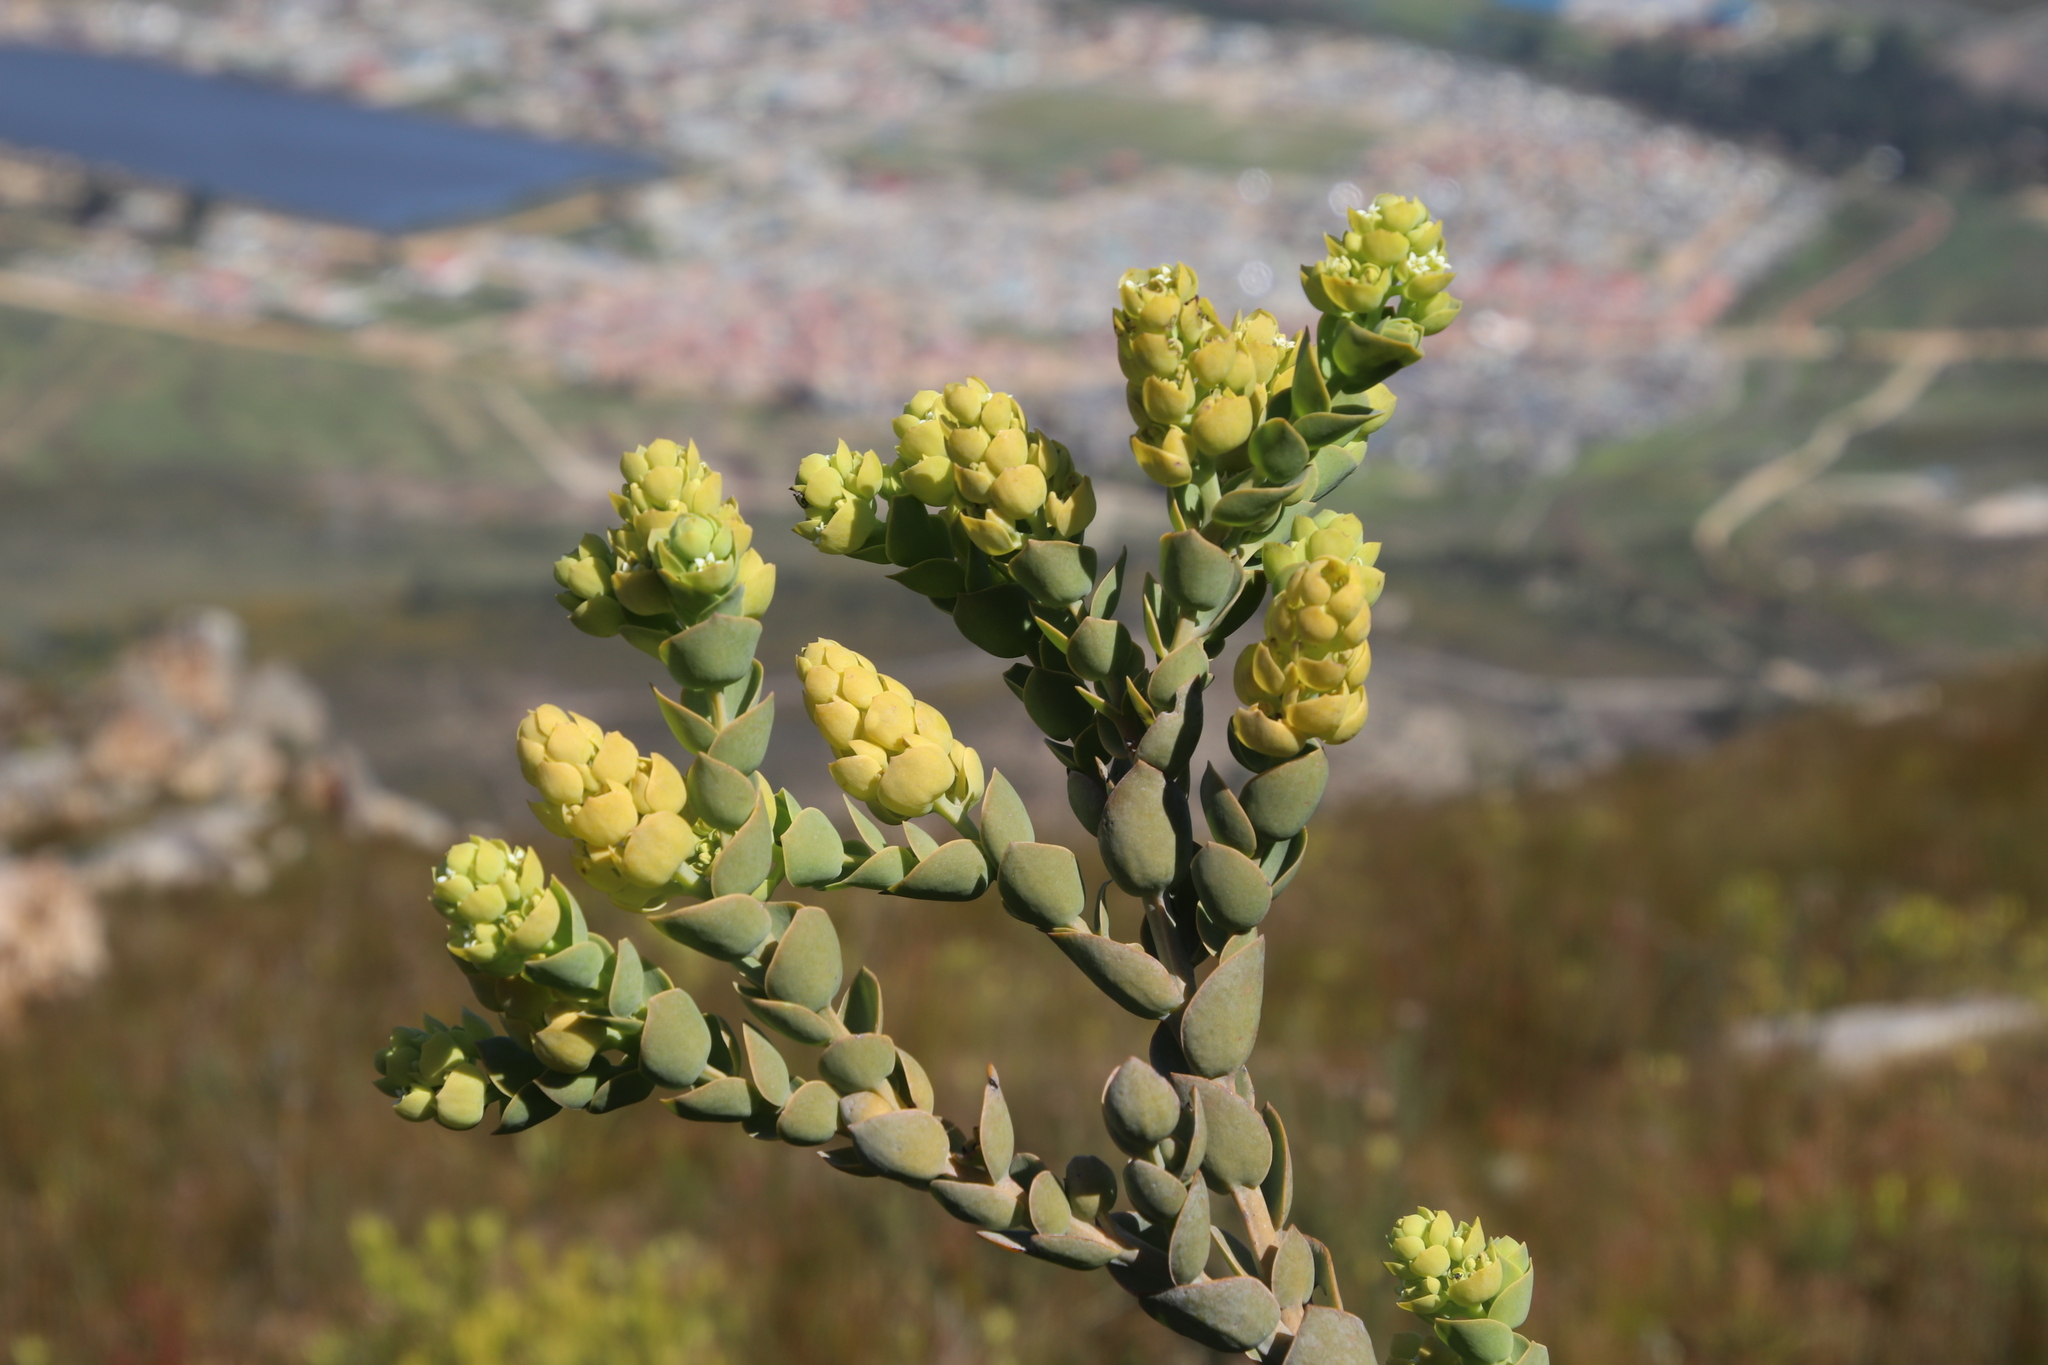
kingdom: Plantae
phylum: Tracheophyta
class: Magnoliopsida
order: Santalales
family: Thesiaceae
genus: Thesium
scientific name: Thesium euphorbioides
